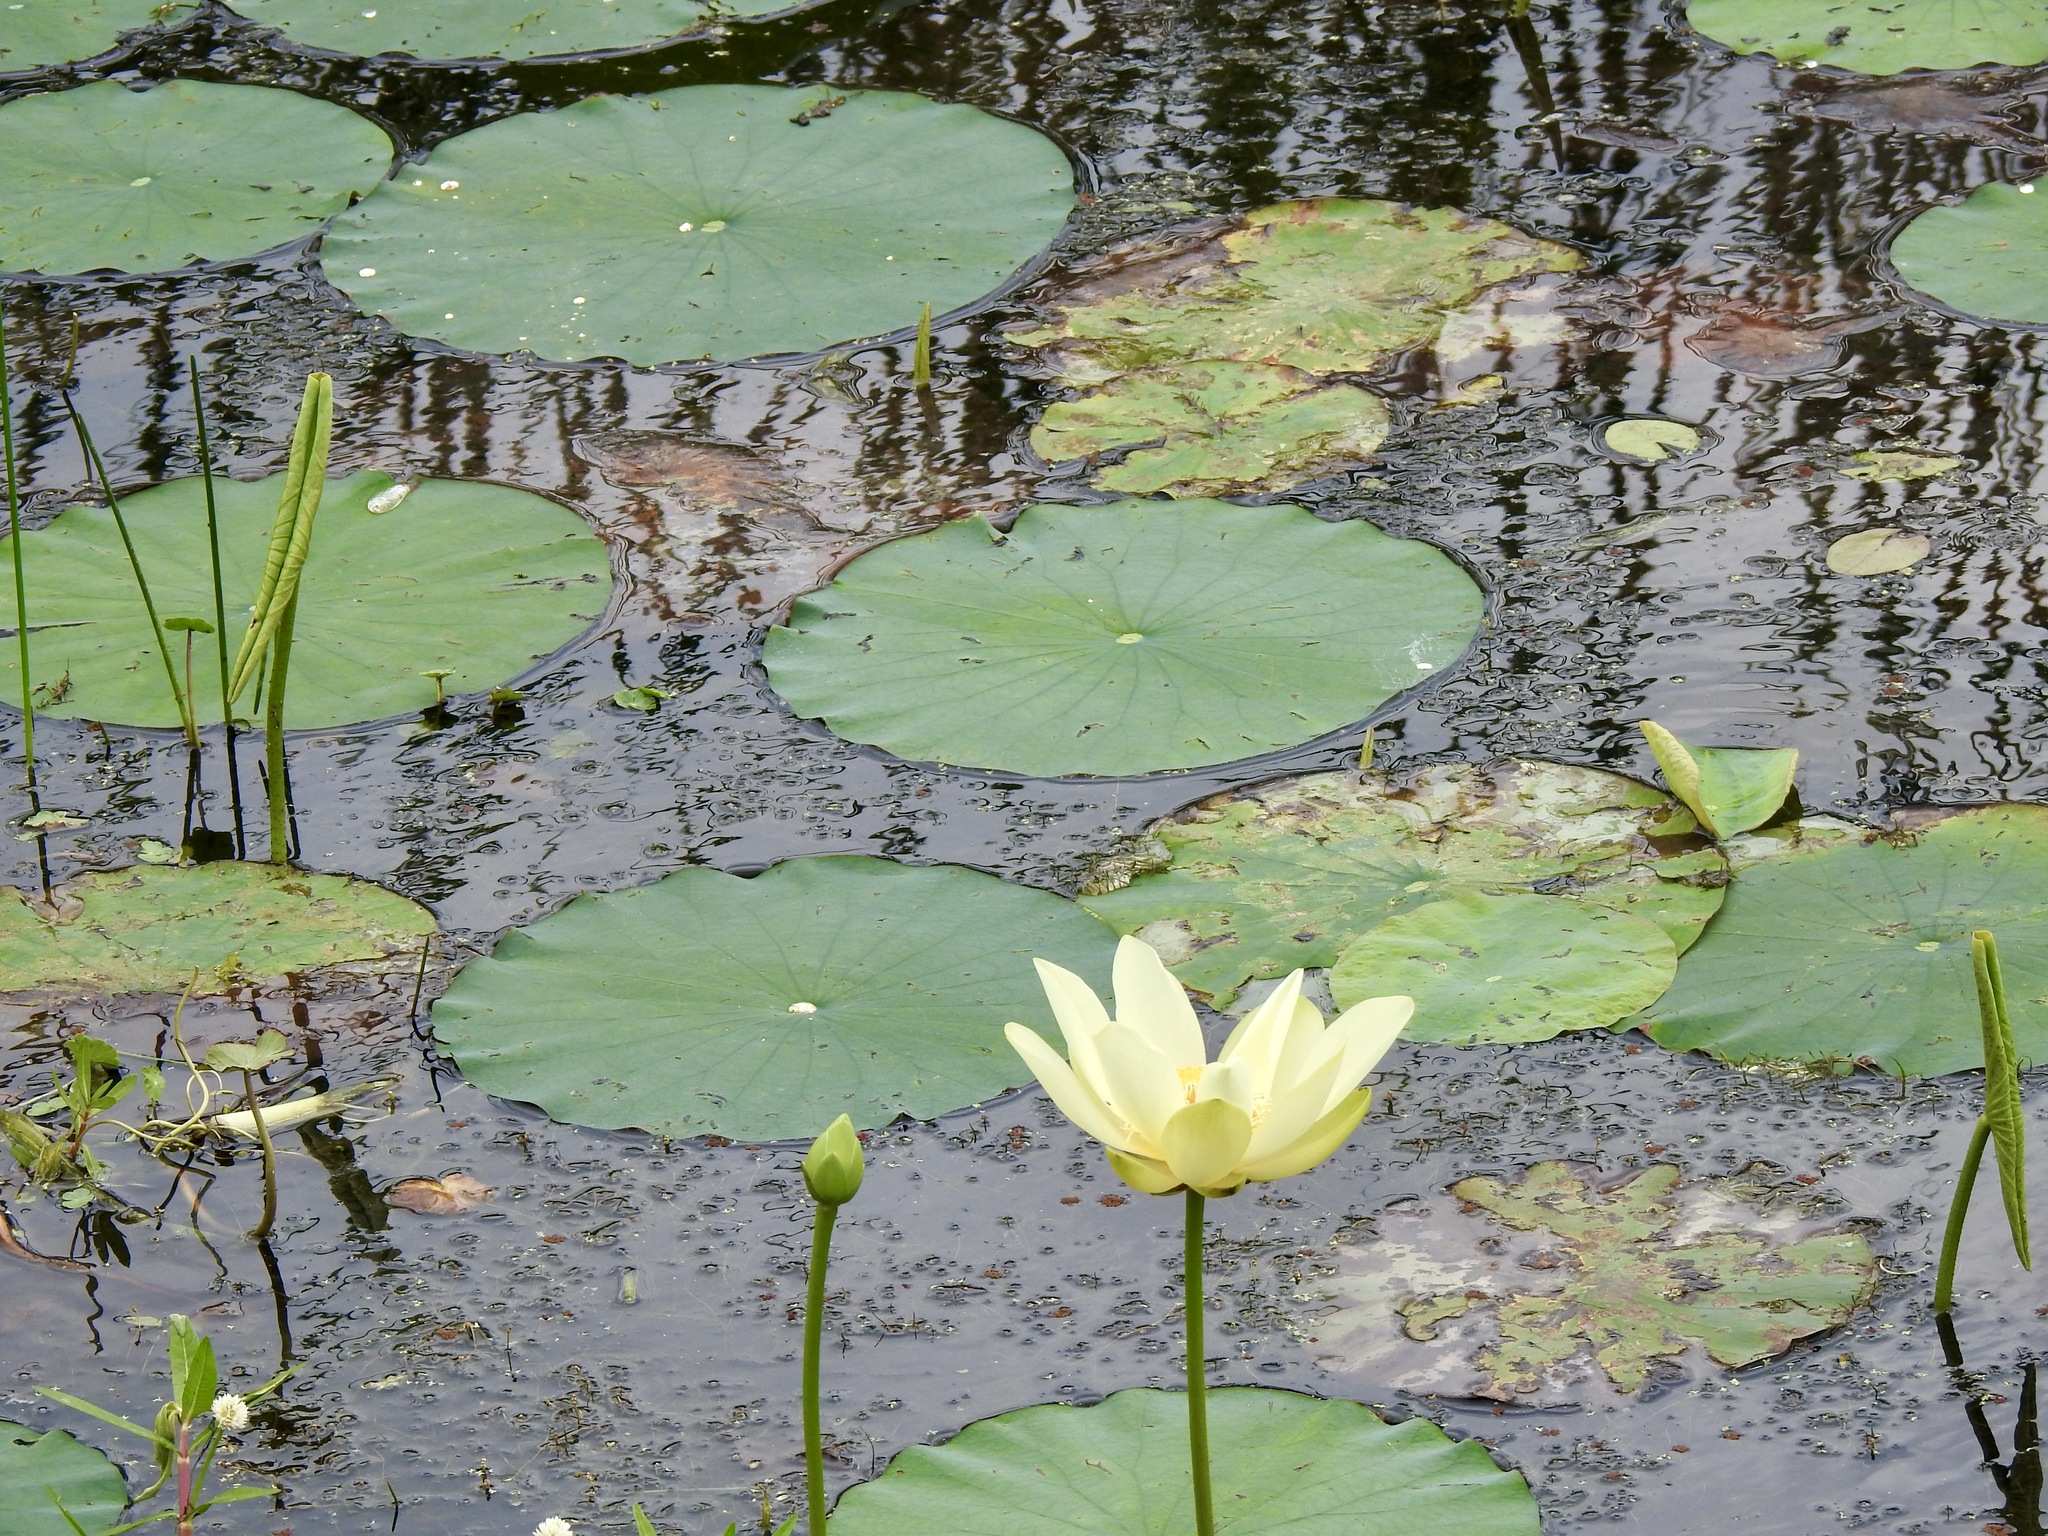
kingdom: Plantae
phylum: Tracheophyta
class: Magnoliopsida
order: Proteales
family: Nelumbonaceae
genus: Nelumbo
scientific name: Nelumbo lutea
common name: American lotus
